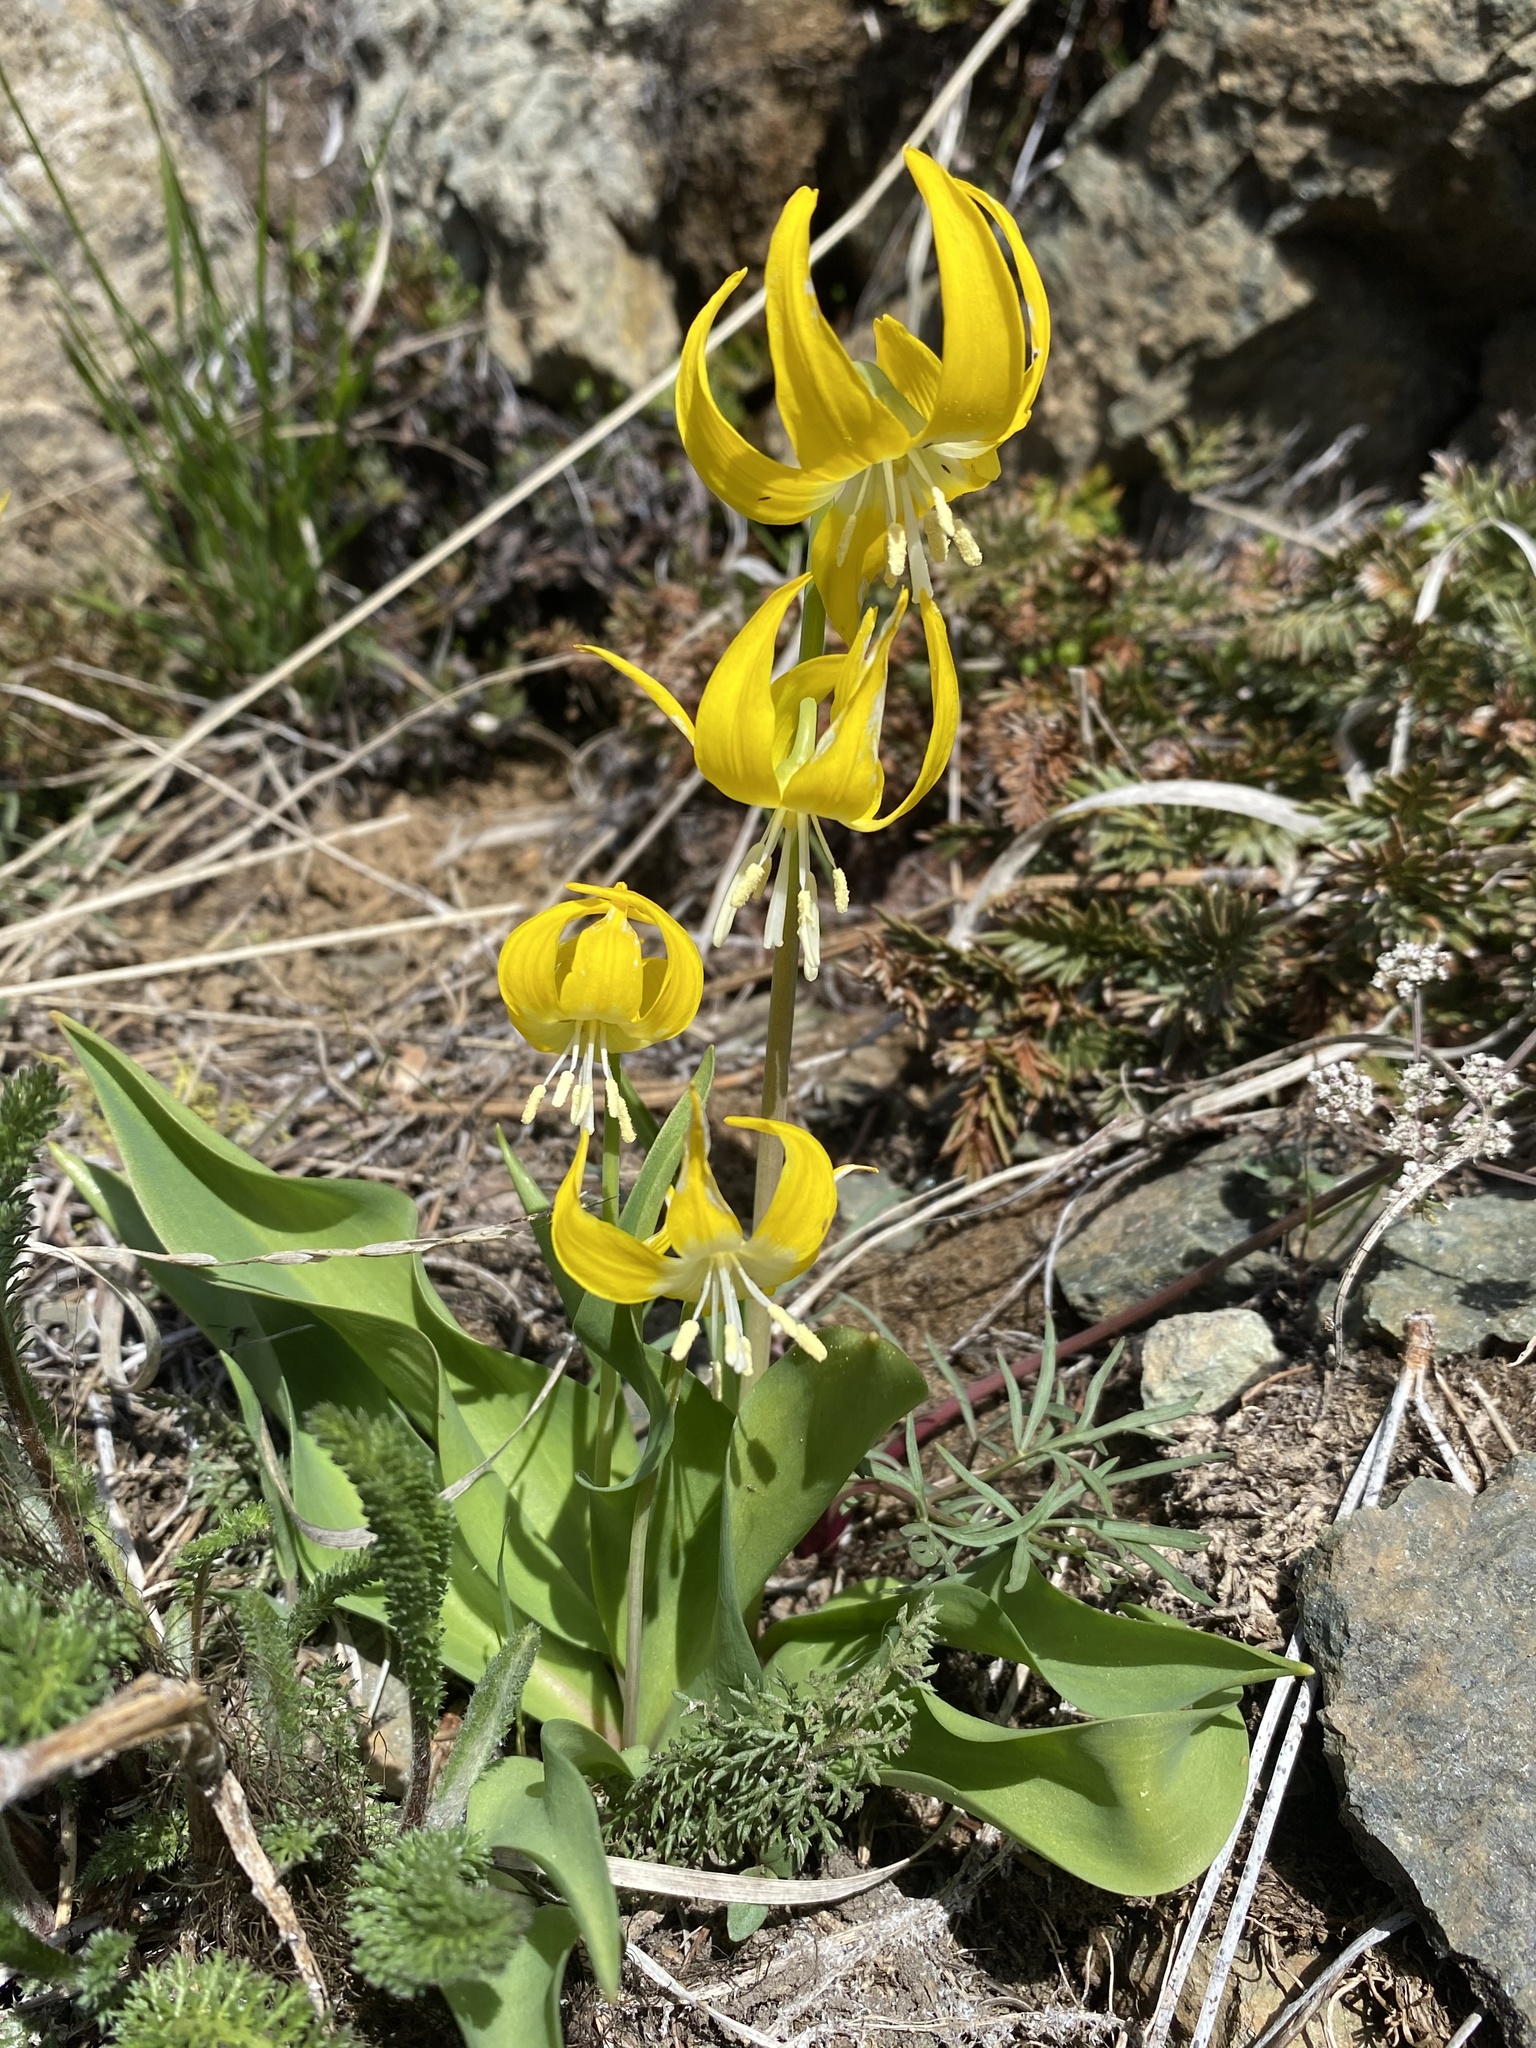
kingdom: Plantae
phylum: Tracheophyta
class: Liliopsida
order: Liliales
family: Liliaceae
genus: Erythronium
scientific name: Erythronium grandiflorum
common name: Avalanche-lily
